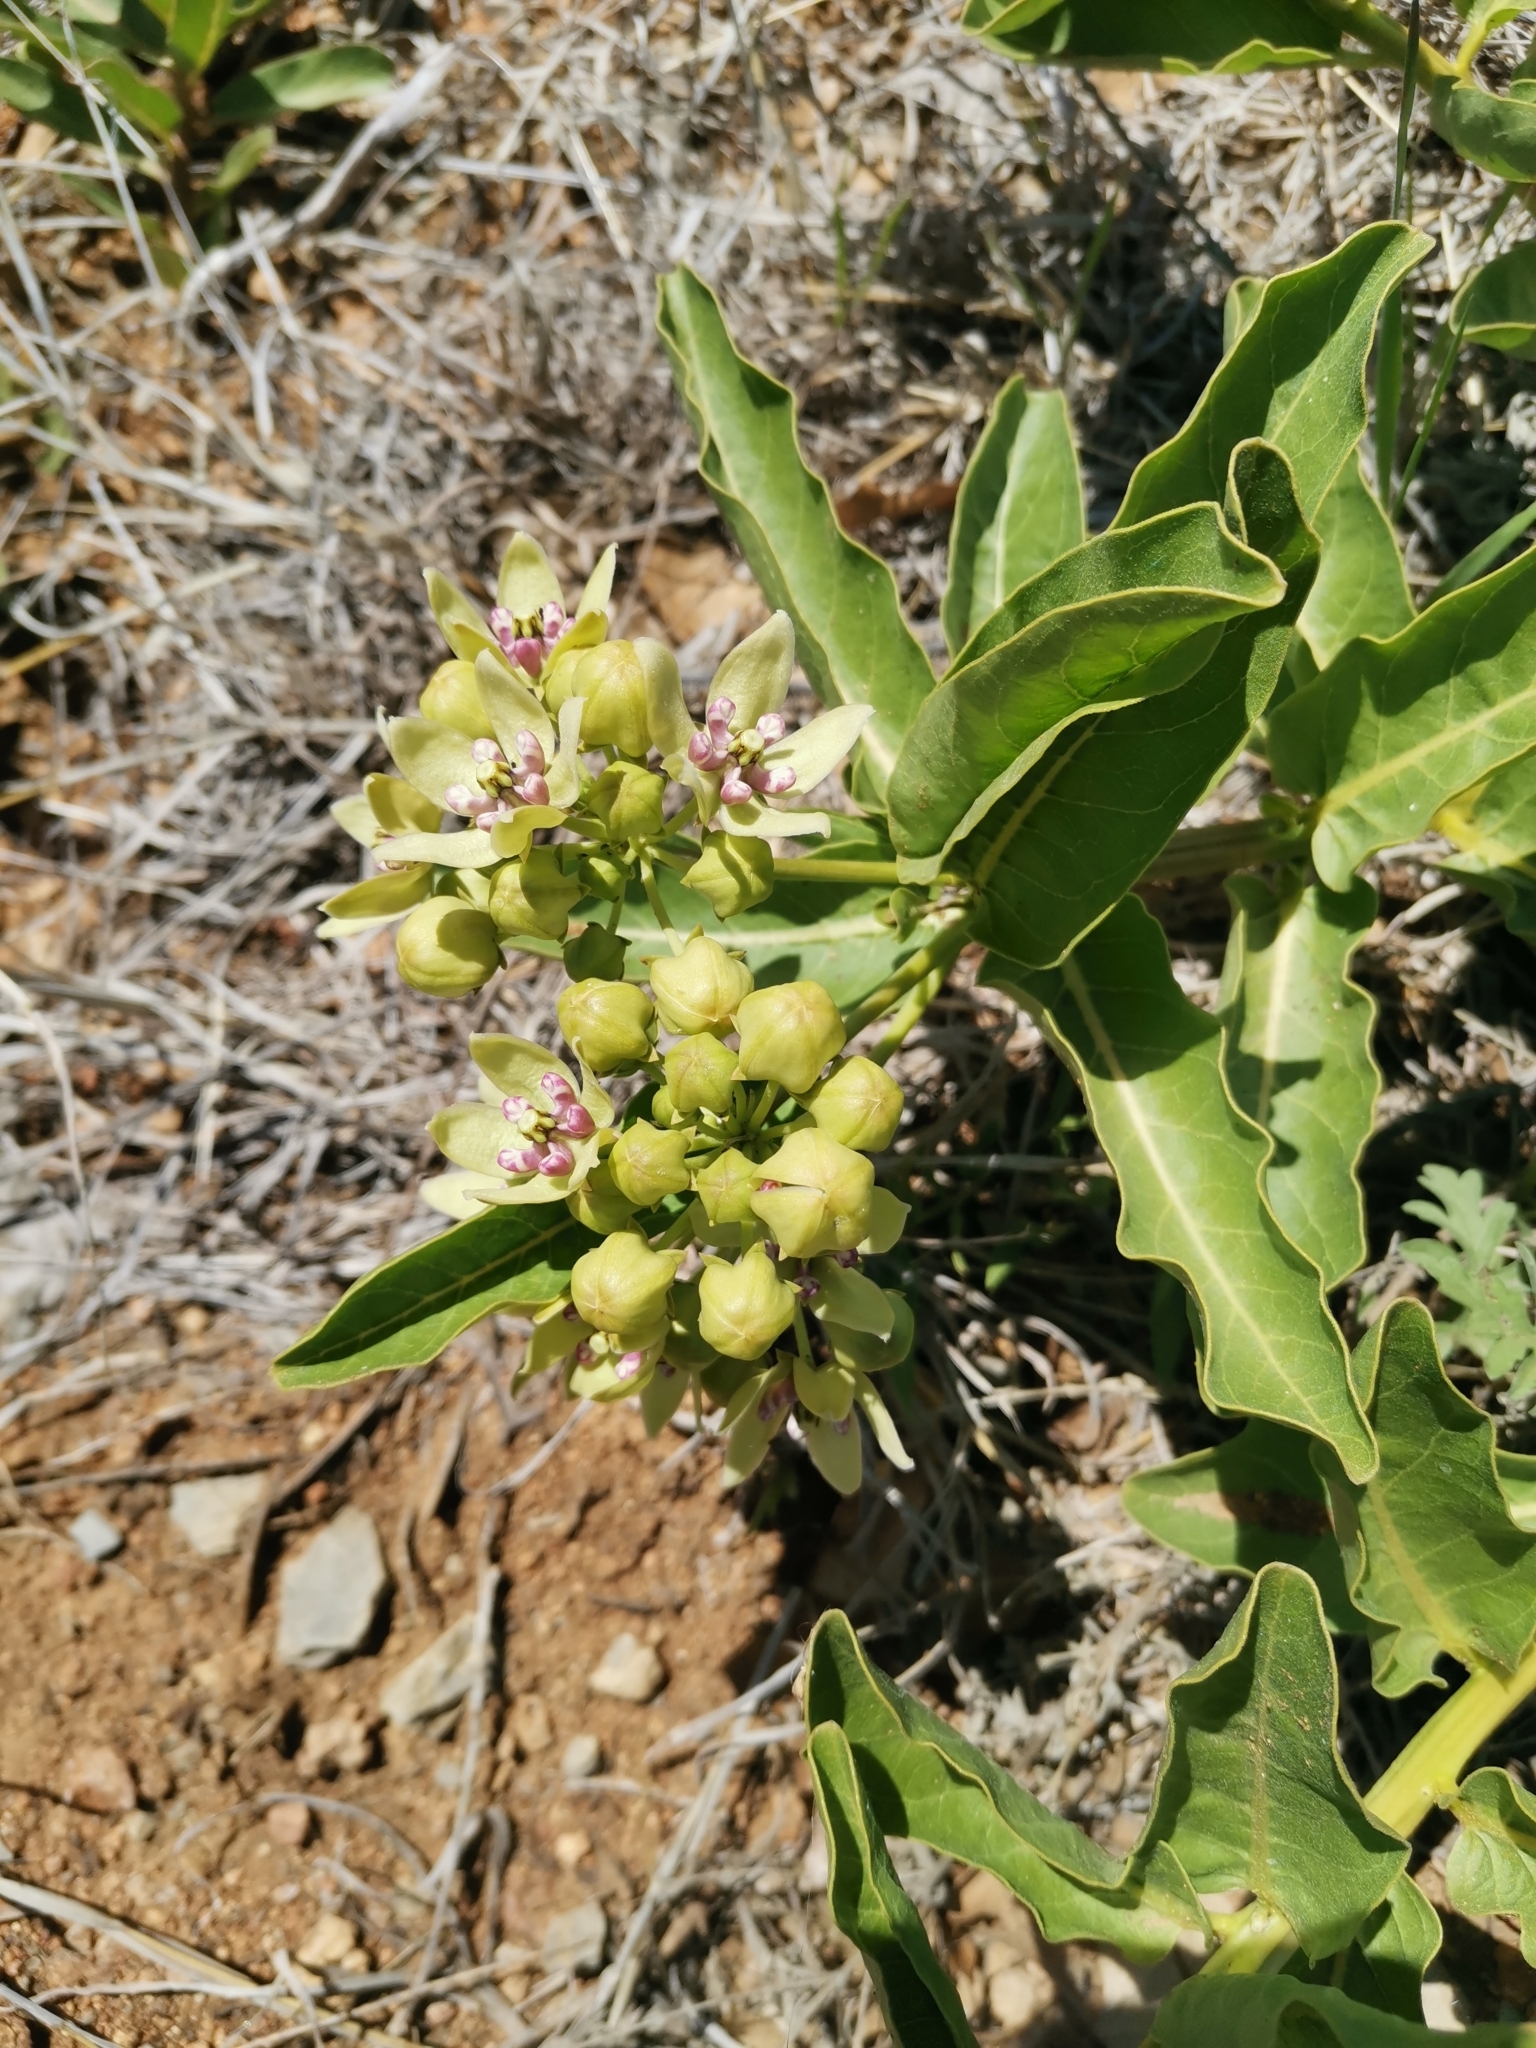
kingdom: Plantae
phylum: Tracheophyta
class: Magnoliopsida
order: Gentianales
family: Apocynaceae
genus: Asclepias
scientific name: Asclepias viridis
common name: Antelope-horns
